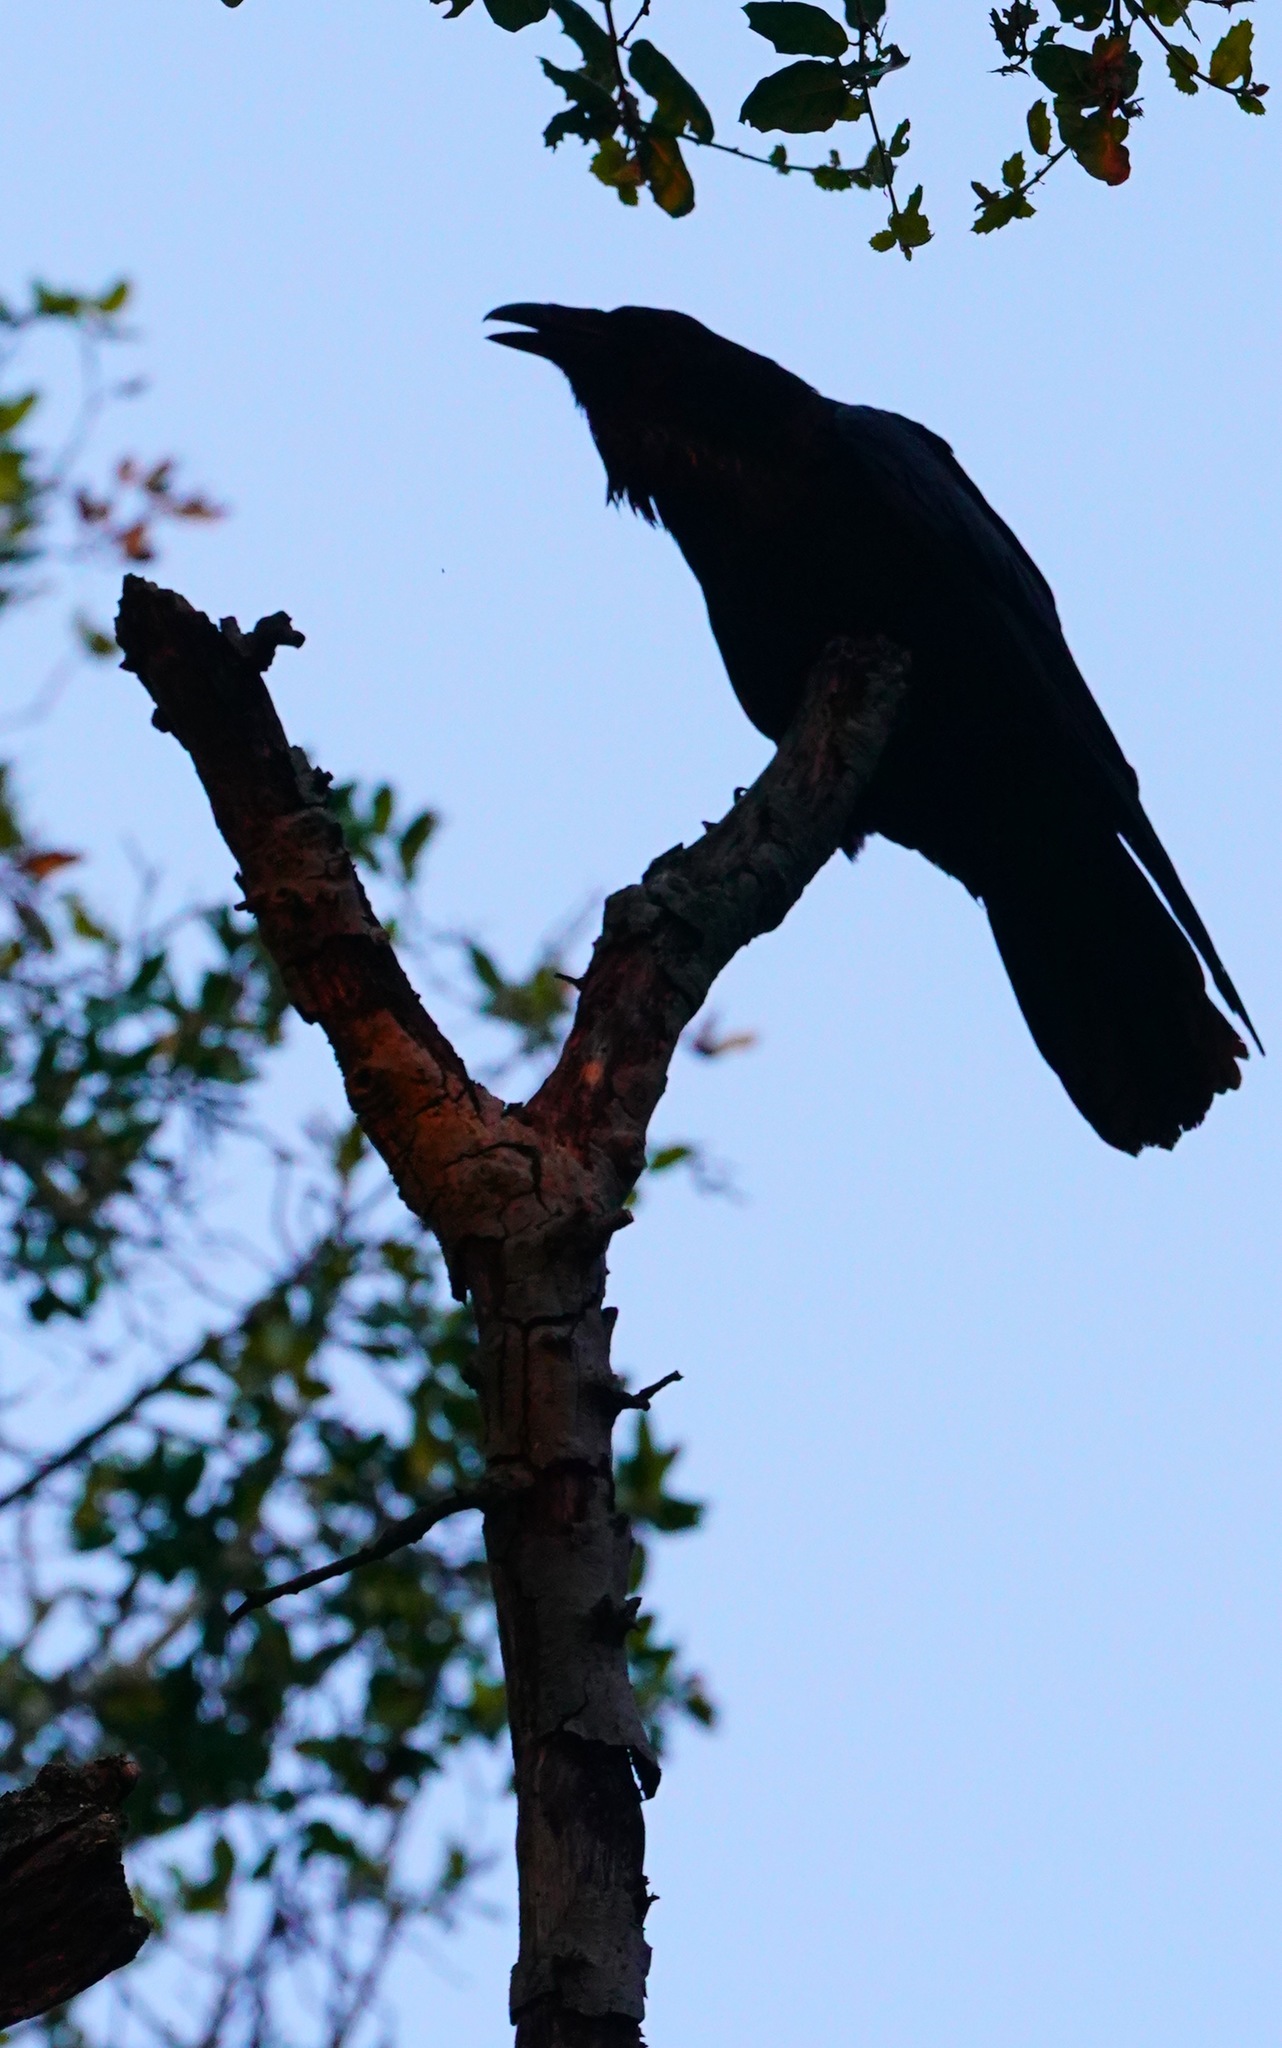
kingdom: Animalia
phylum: Chordata
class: Aves
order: Passeriformes
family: Corvidae
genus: Corvus
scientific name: Corvus corax
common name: Common raven
